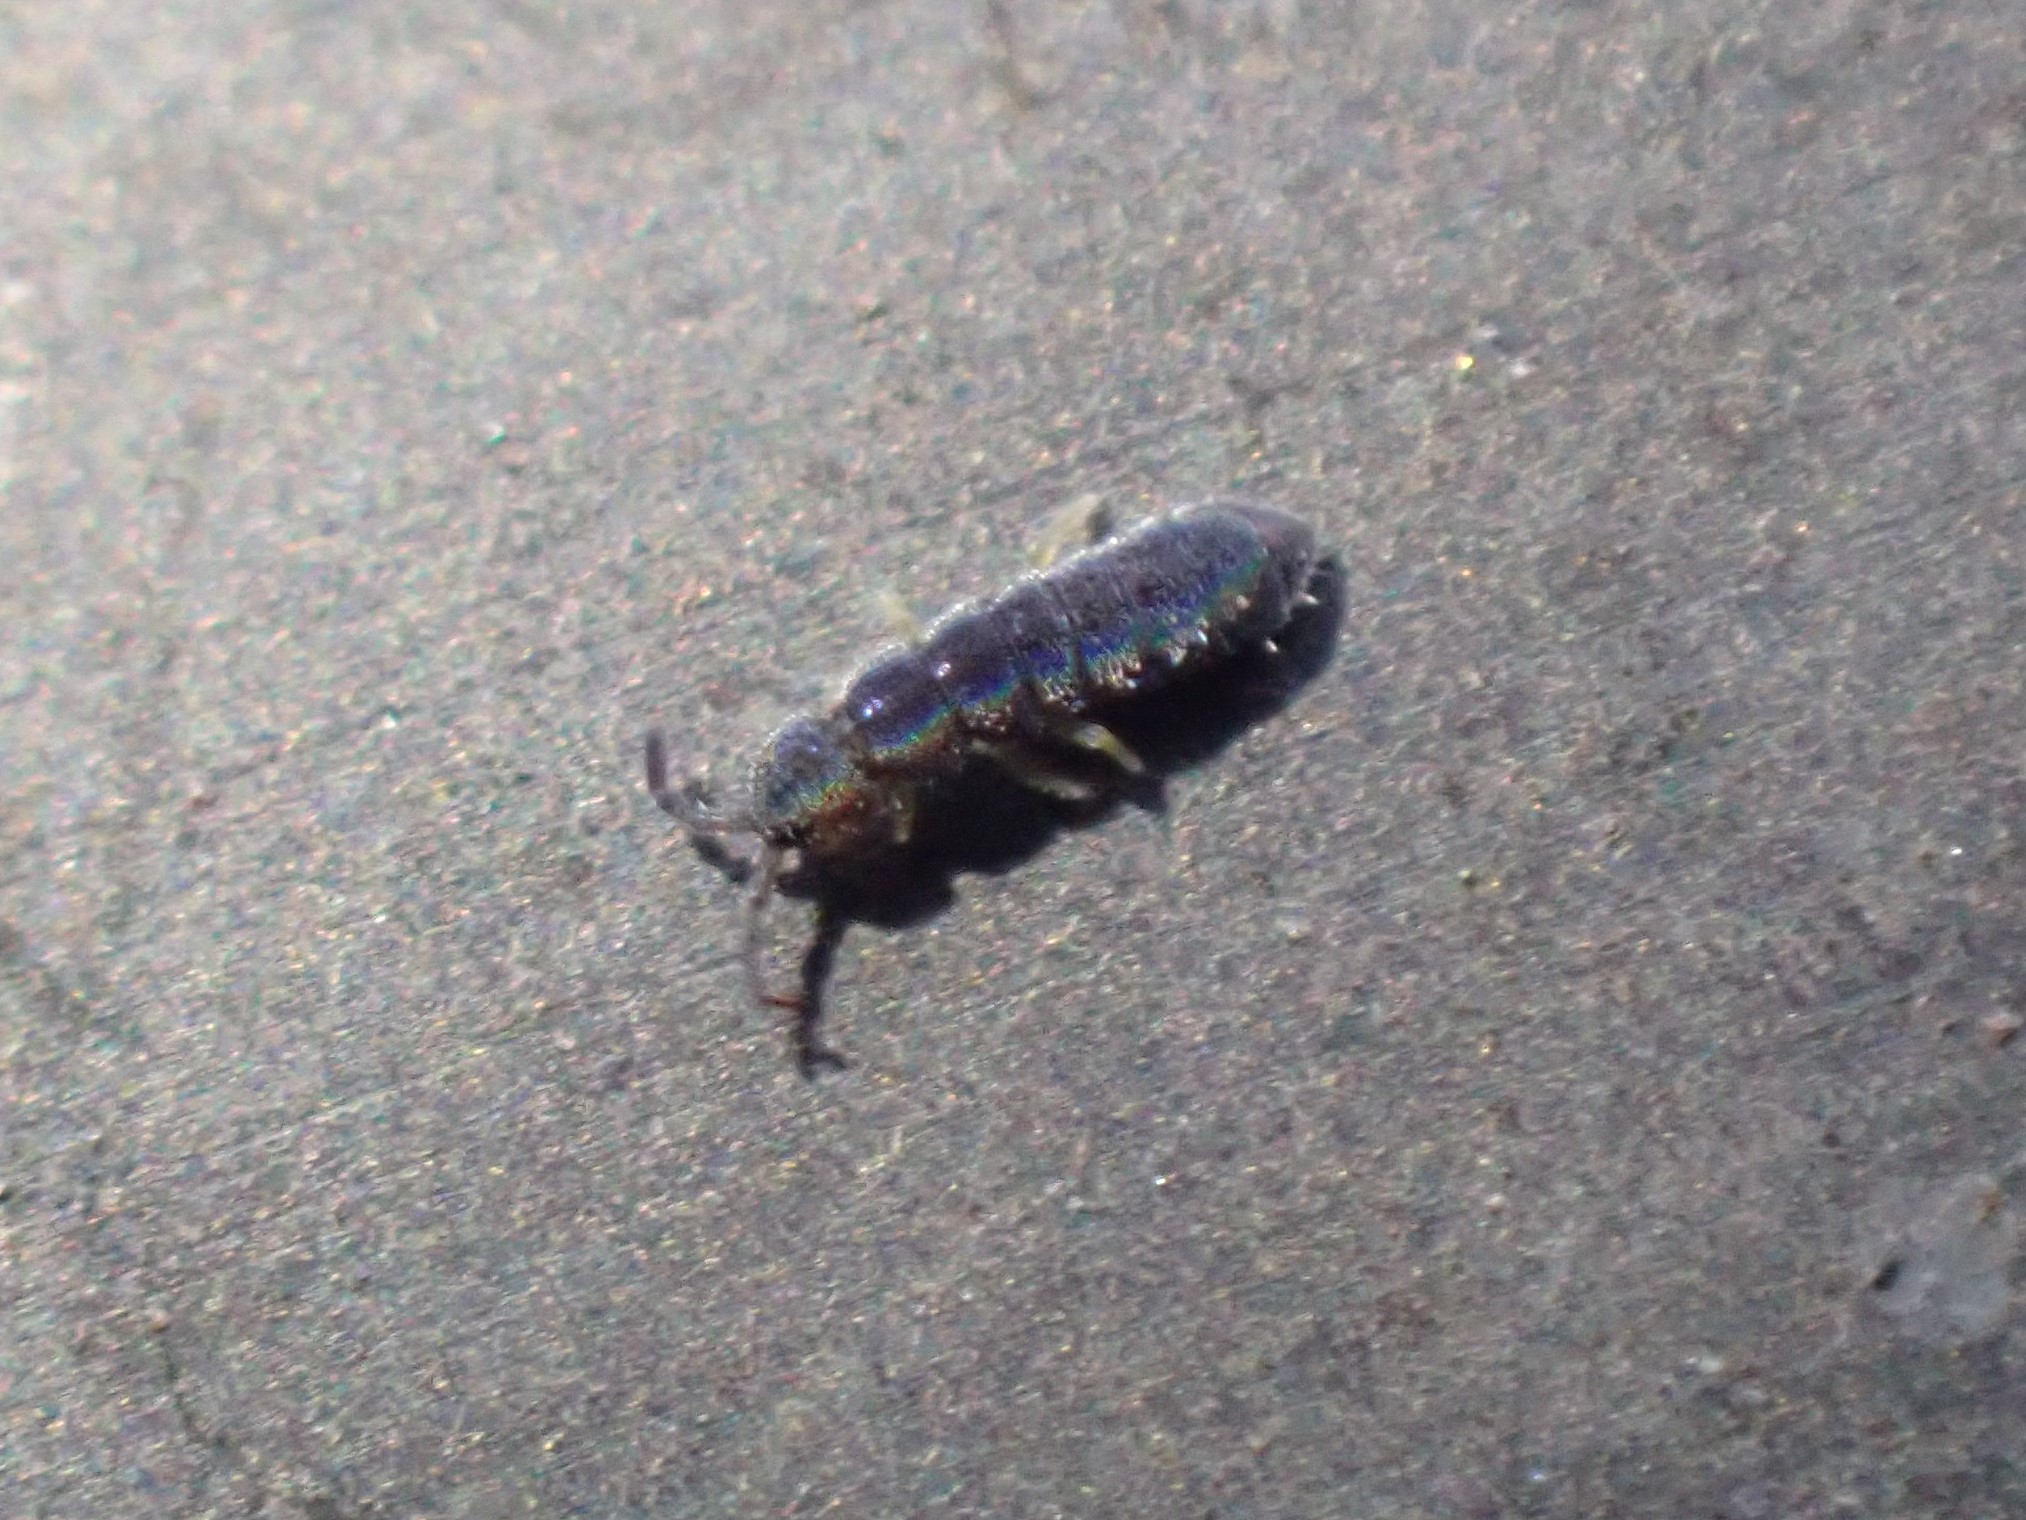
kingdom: Animalia
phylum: Arthropoda
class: Collembola
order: Entomobryomorpha
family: Isotomidae
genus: Vertagopus
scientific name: Vertagopus asiaticus
